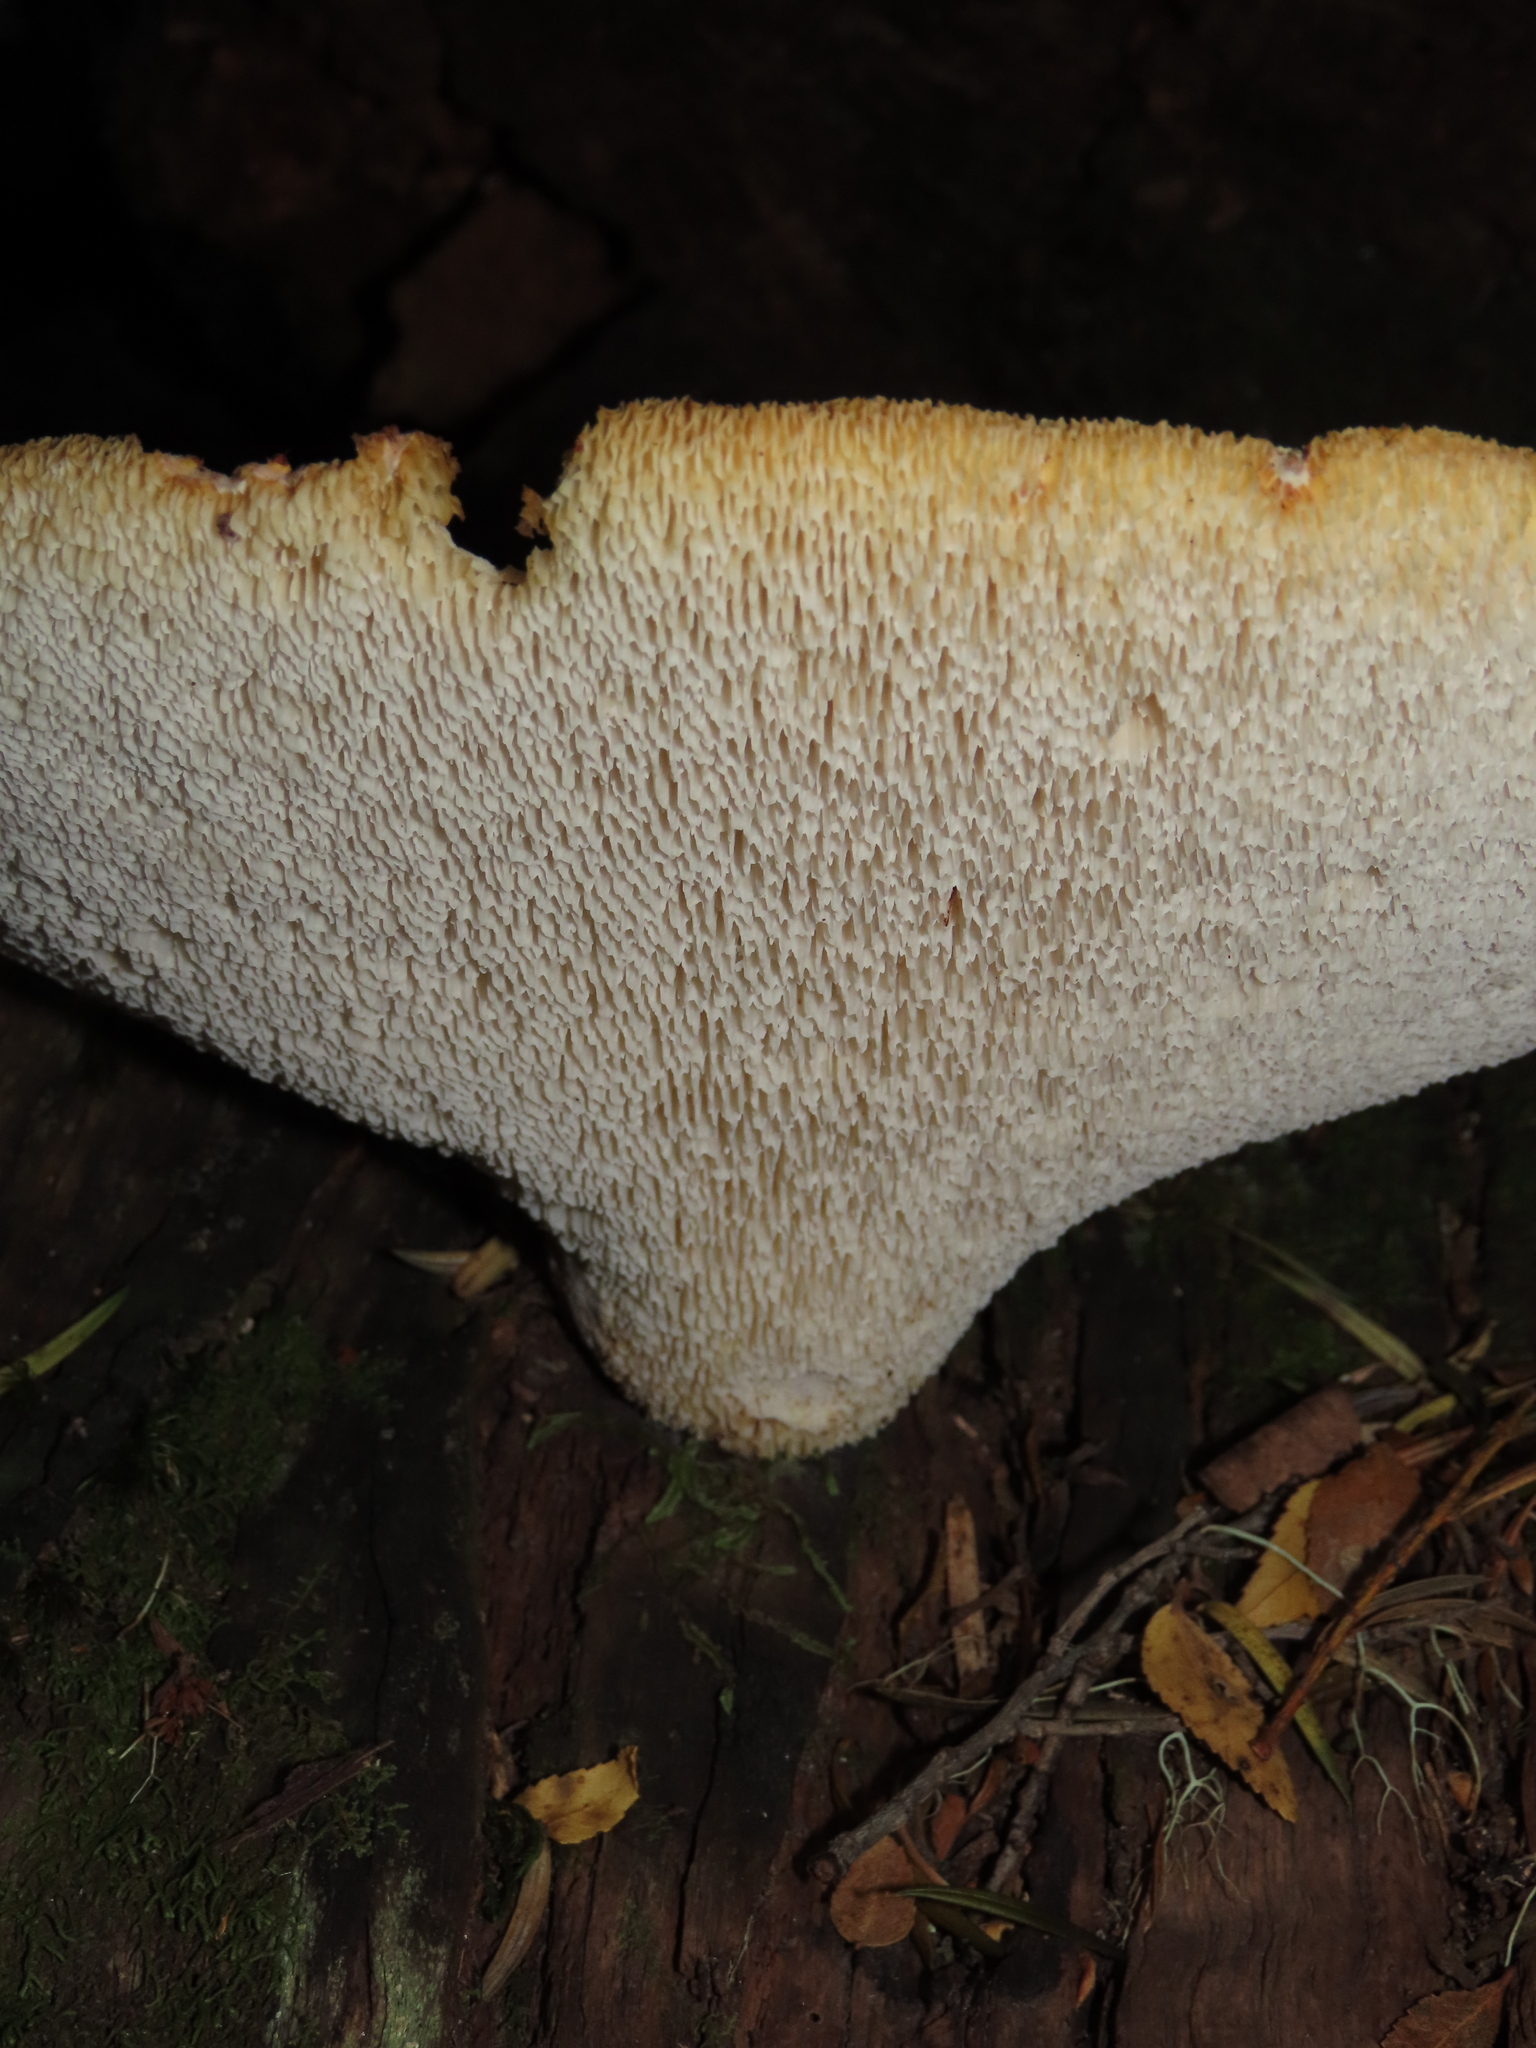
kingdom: Fungi
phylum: Basidiomycota
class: Agaricomycetes
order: Polyporales
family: Fomitopsidaceae
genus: Fomitopsis
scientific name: Fomitopsis
